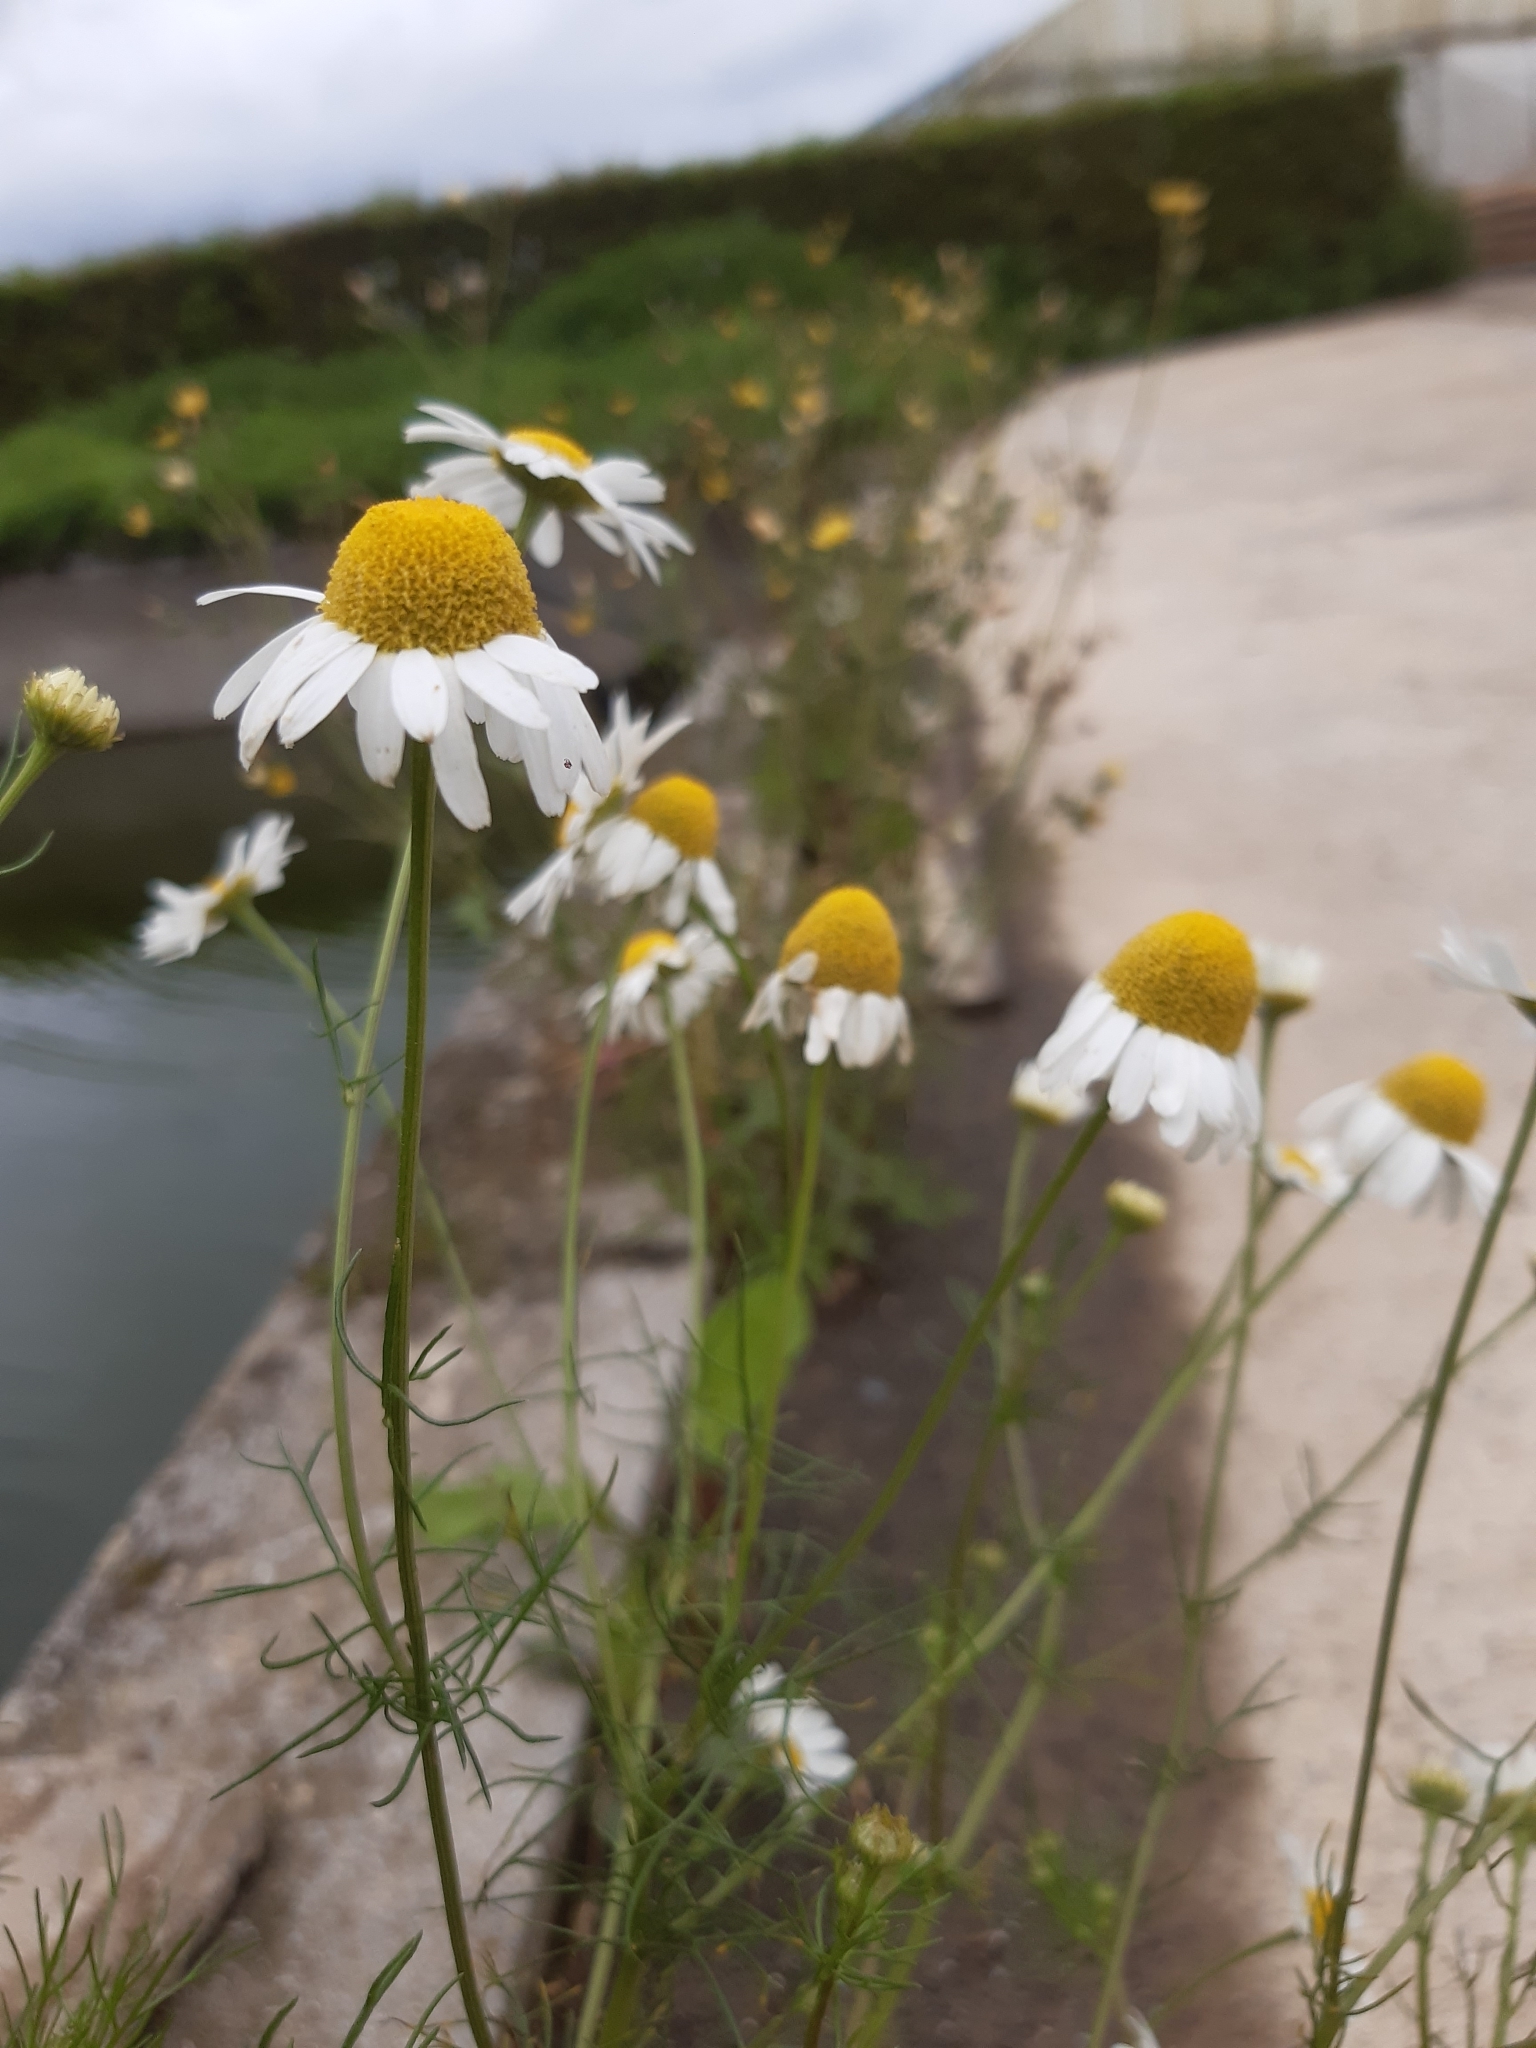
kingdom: Plantae
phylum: Tracheophyta
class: Magnoliopsida
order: Asterales
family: Asteraceae
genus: Matricaria
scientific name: Matricaria chamomilla
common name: Scented mayweed
